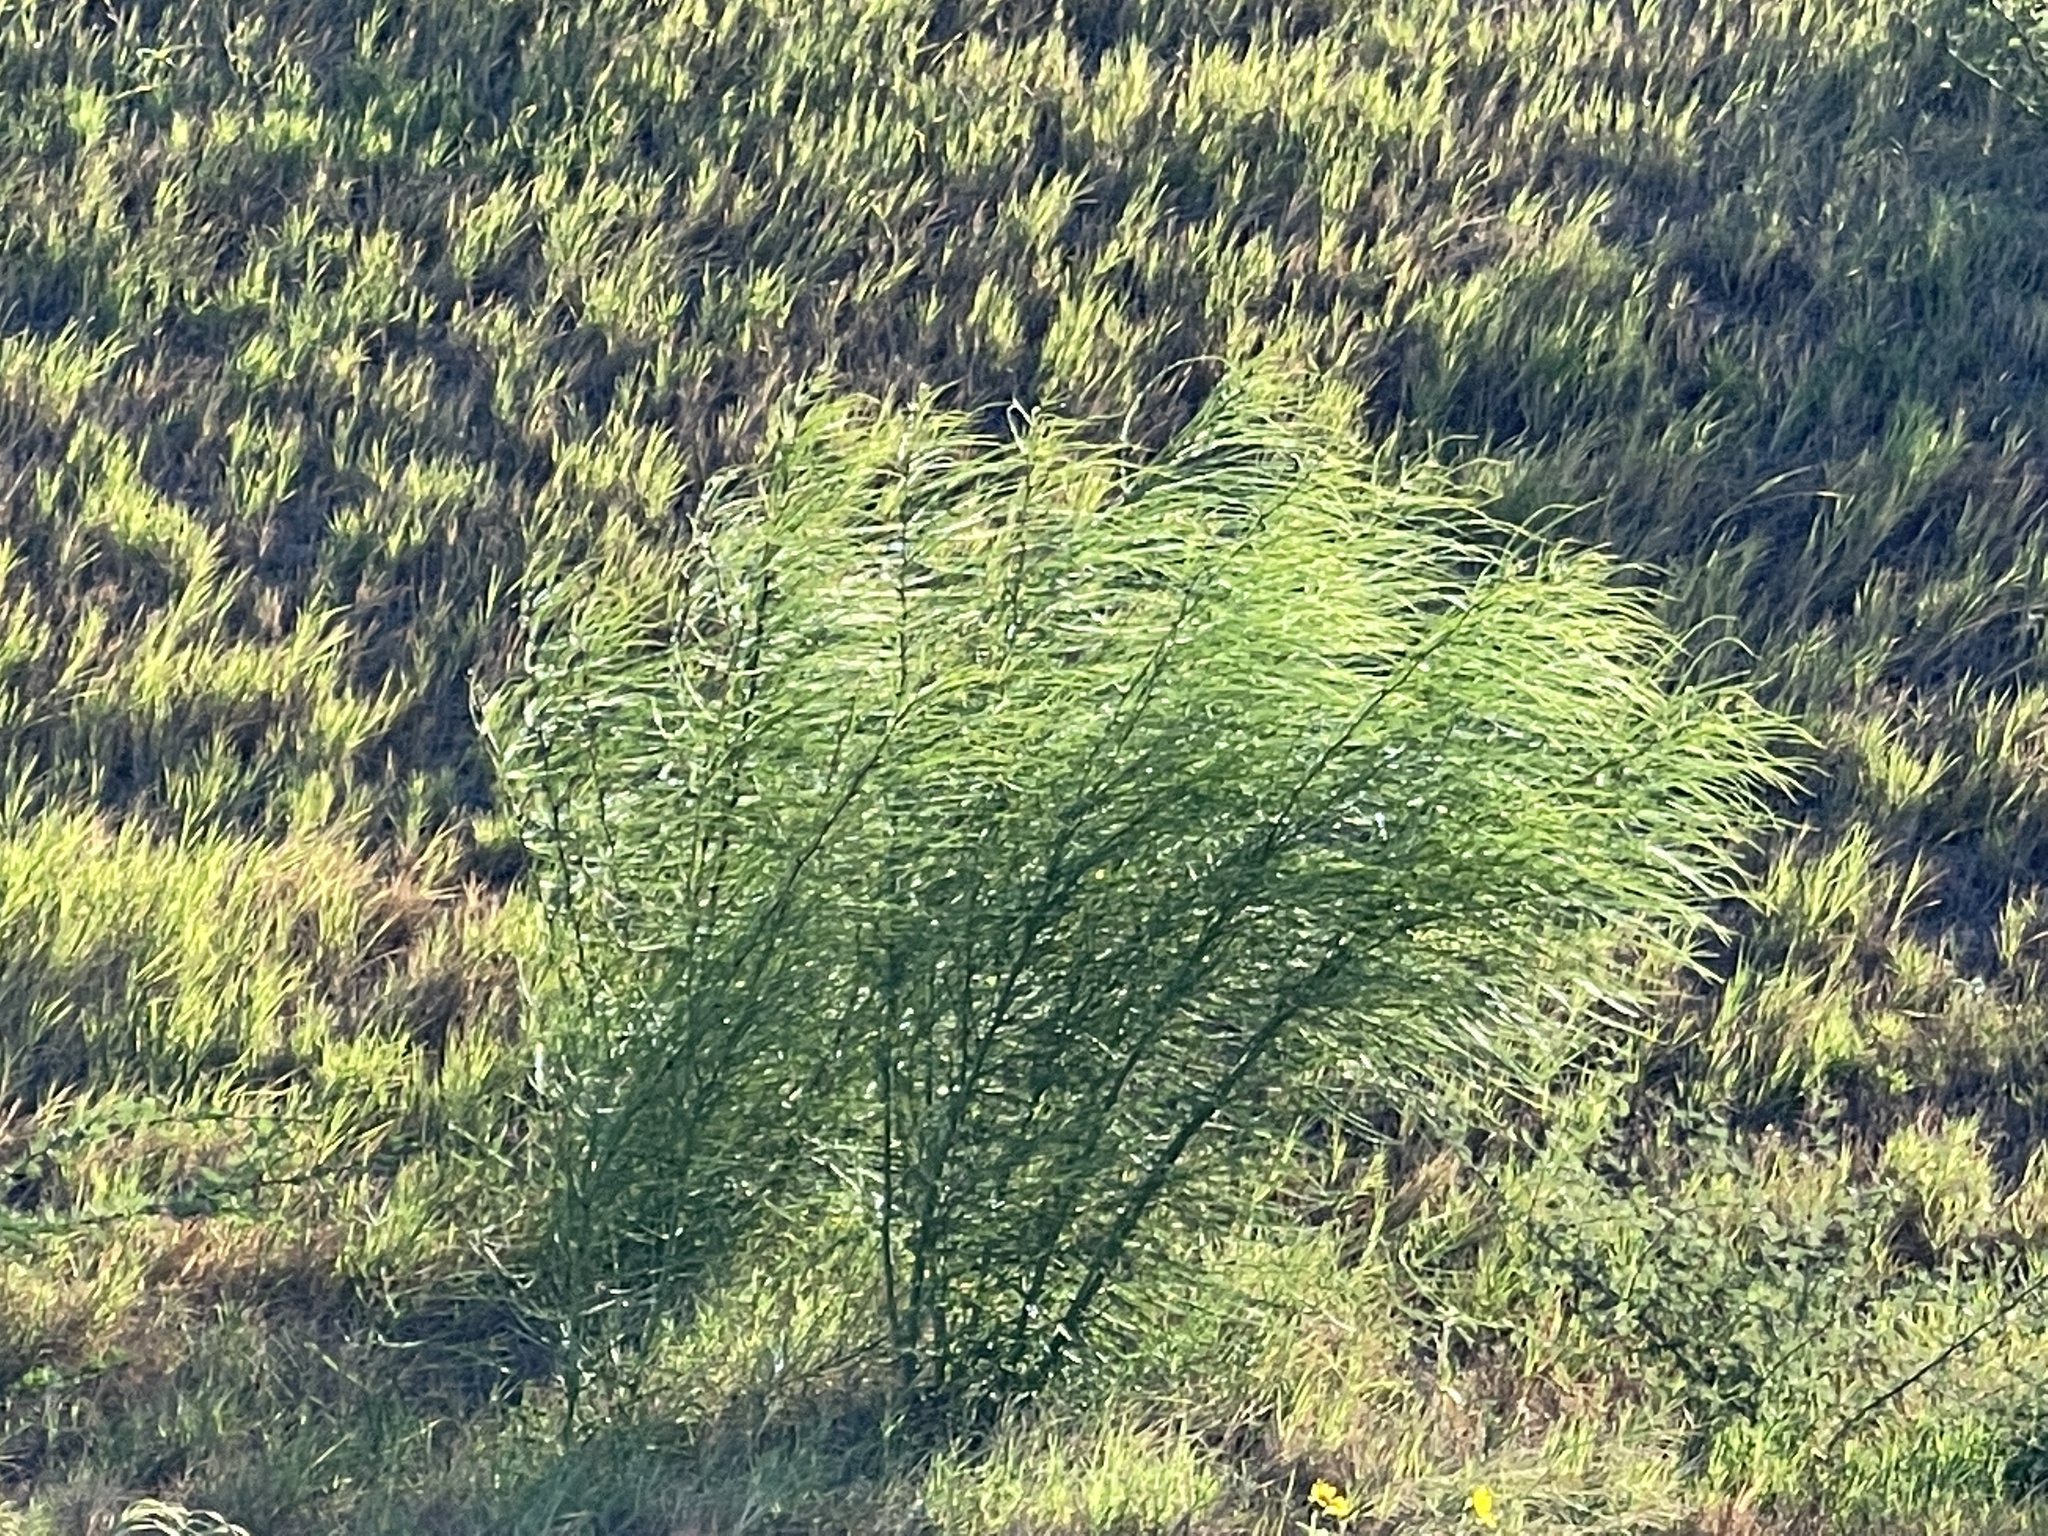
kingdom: Plantae
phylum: Tracheophyta
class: Magnoliopsida
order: Fabales
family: Fabaceae
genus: Parkinsonia
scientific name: Parkinsonia aculeata
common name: Jerusalem thorn
